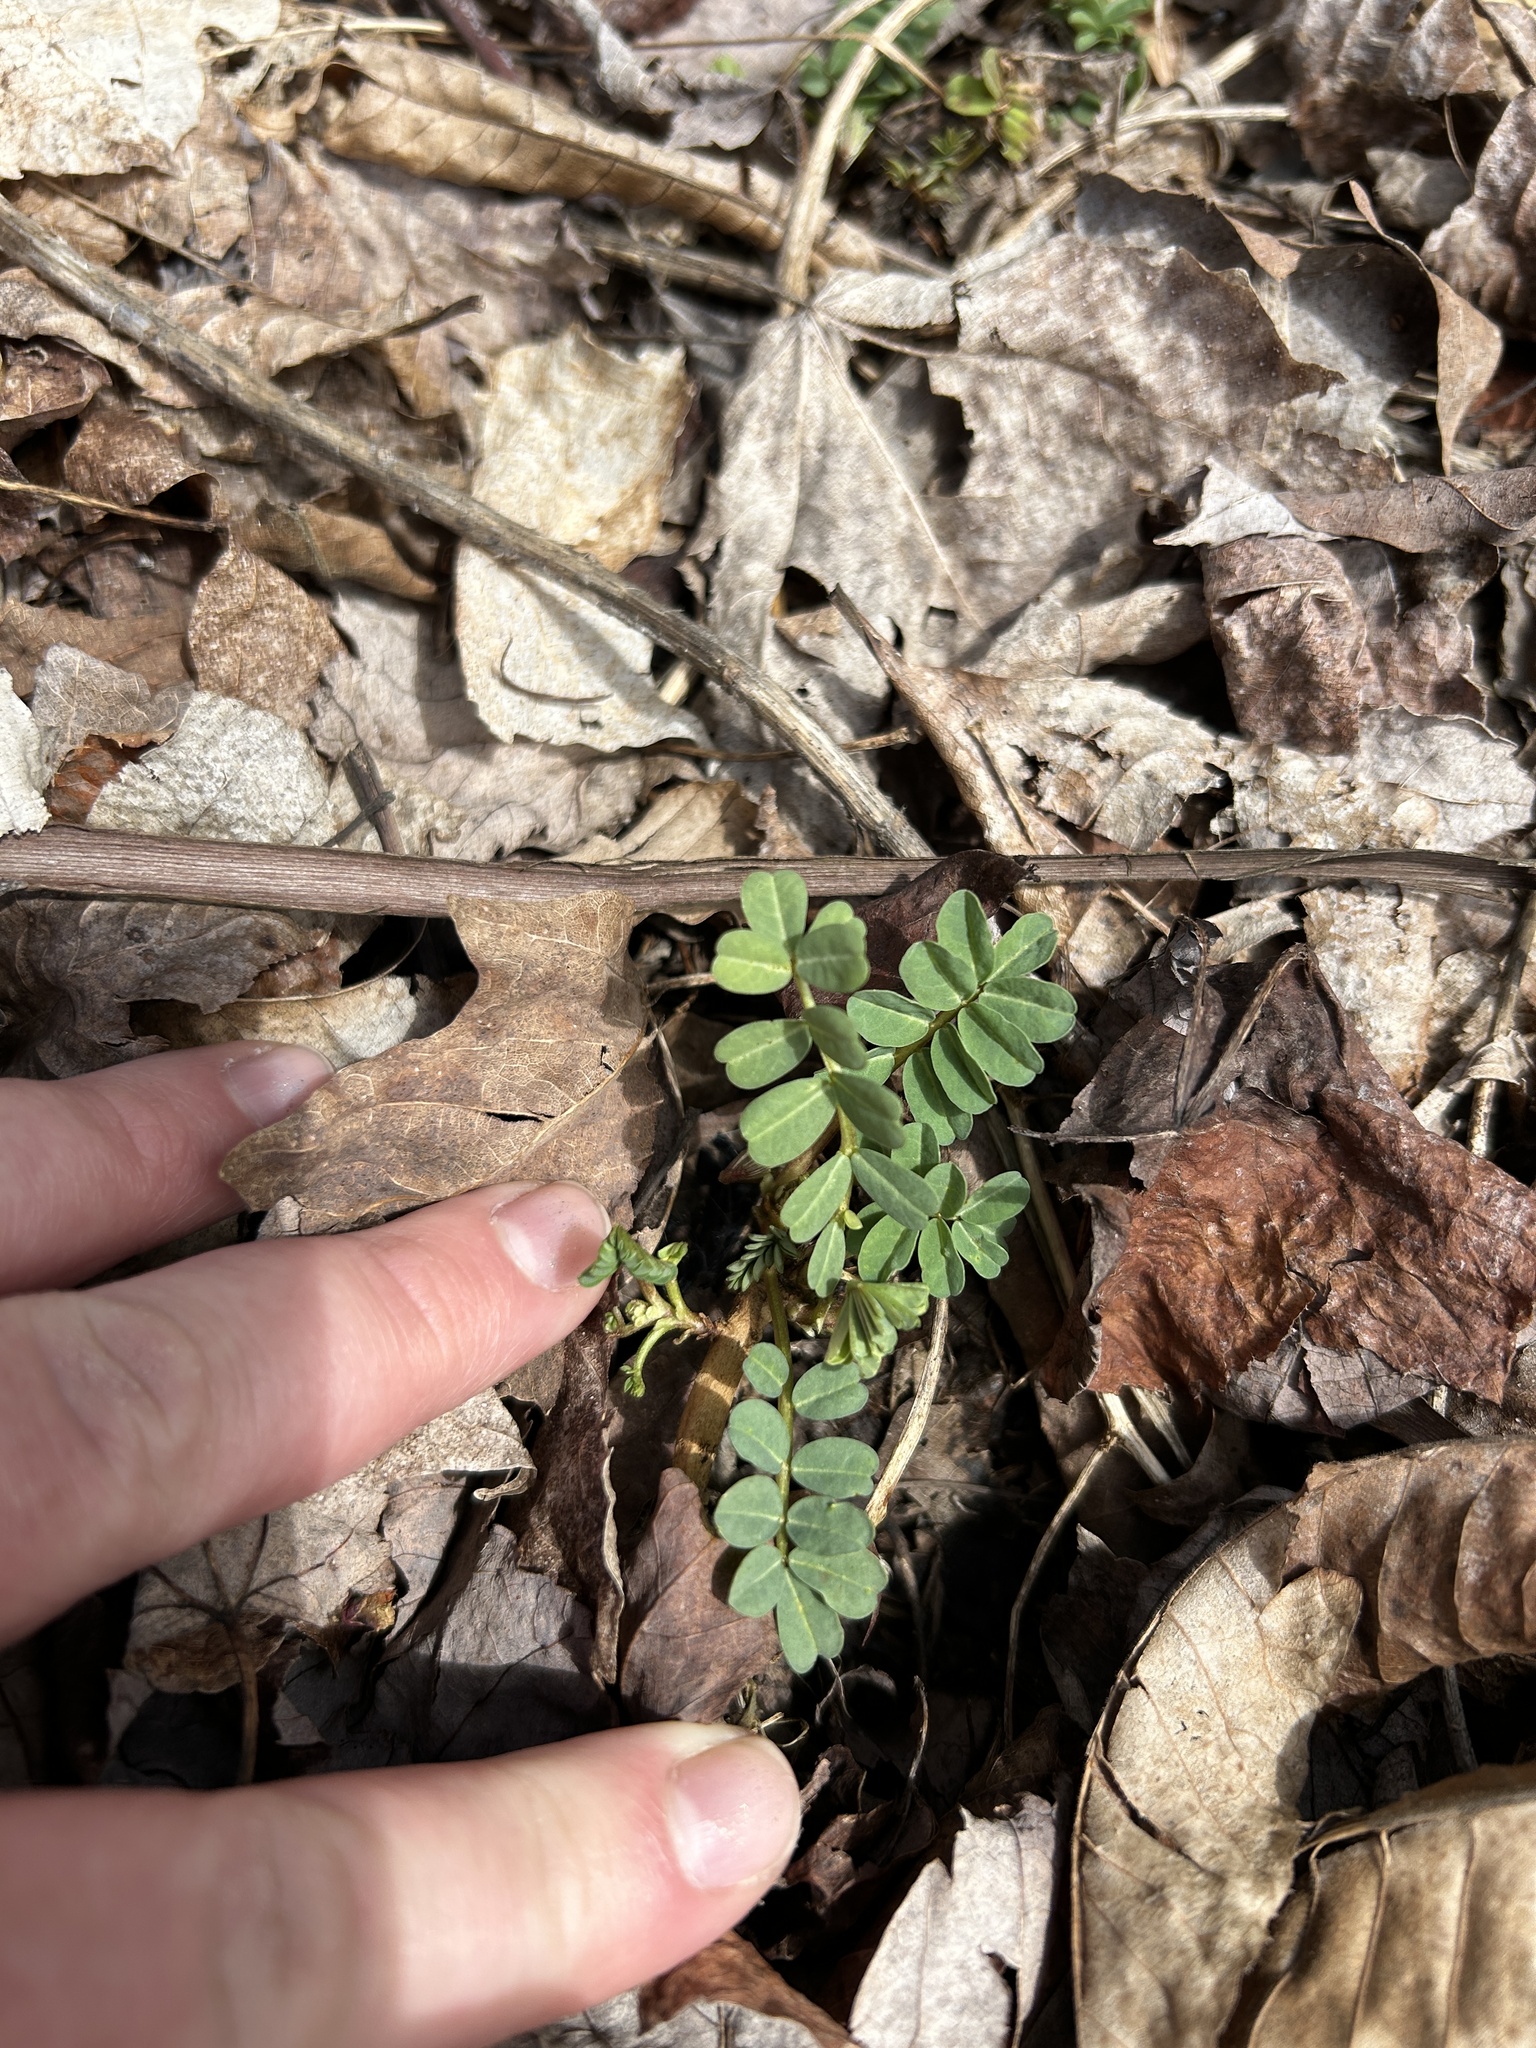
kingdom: Plantae
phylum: Tracheophyta
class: Magnoliopsida
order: Fabales
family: Fabaceae
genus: Coronilla
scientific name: Coronilla varia
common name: Crownvetch
